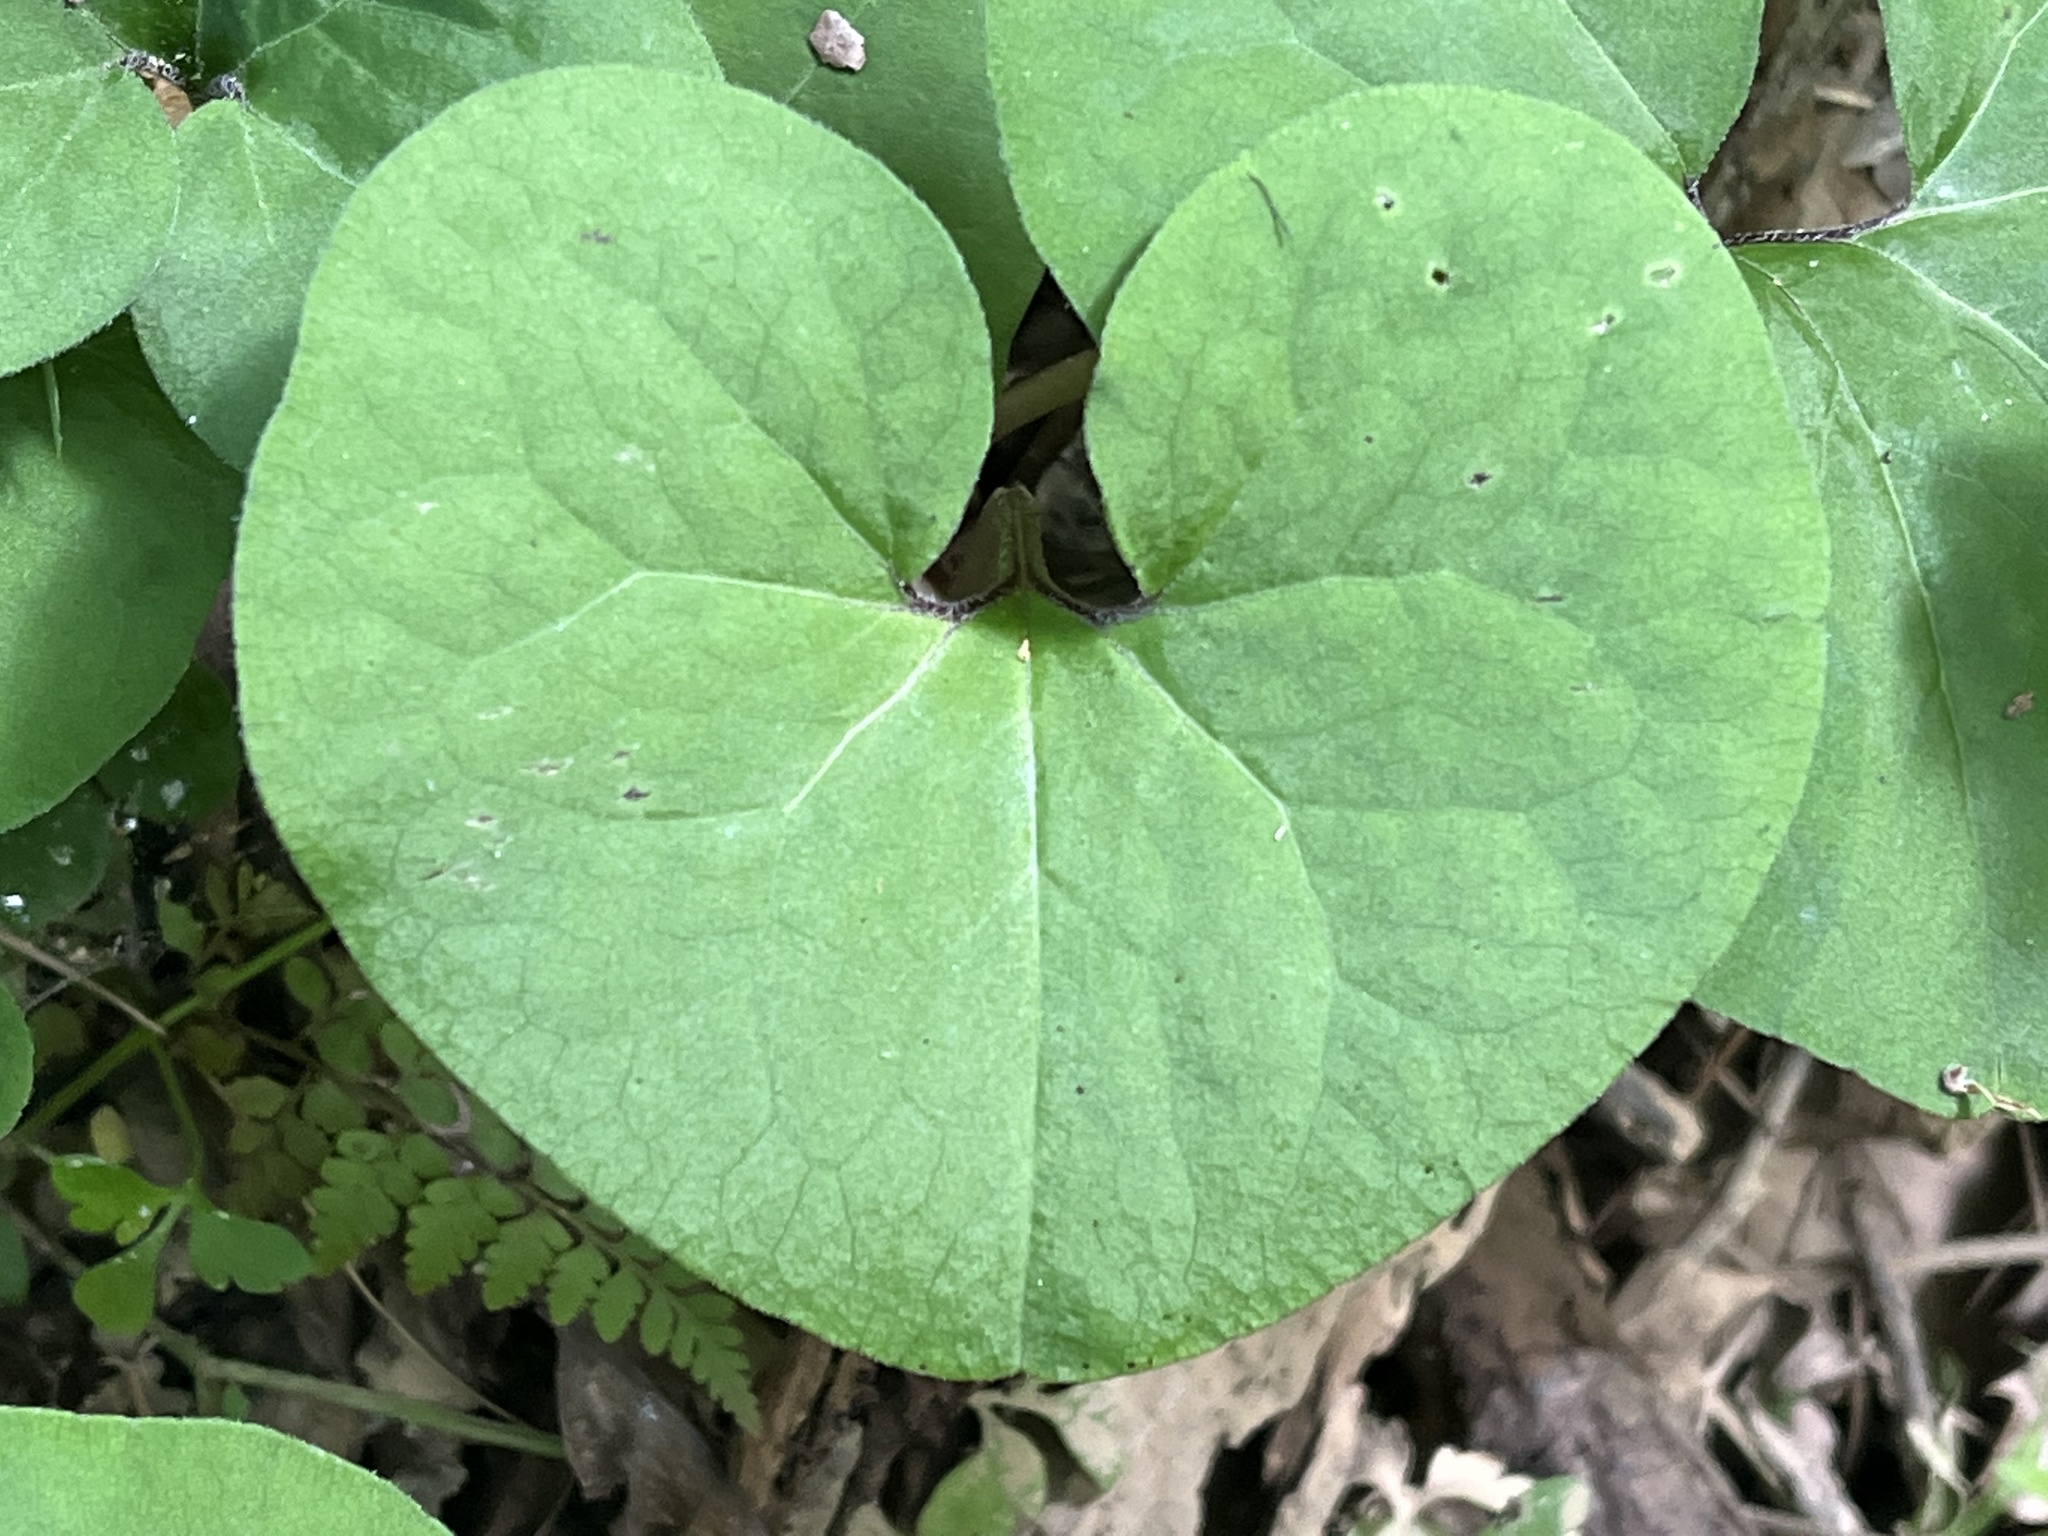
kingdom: Plantae
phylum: Tracheophyta
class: Magnoliopsida
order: Piperales
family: Aristolochiaceae
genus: Asarum
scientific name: Asarum canadense
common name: Wild ginger
